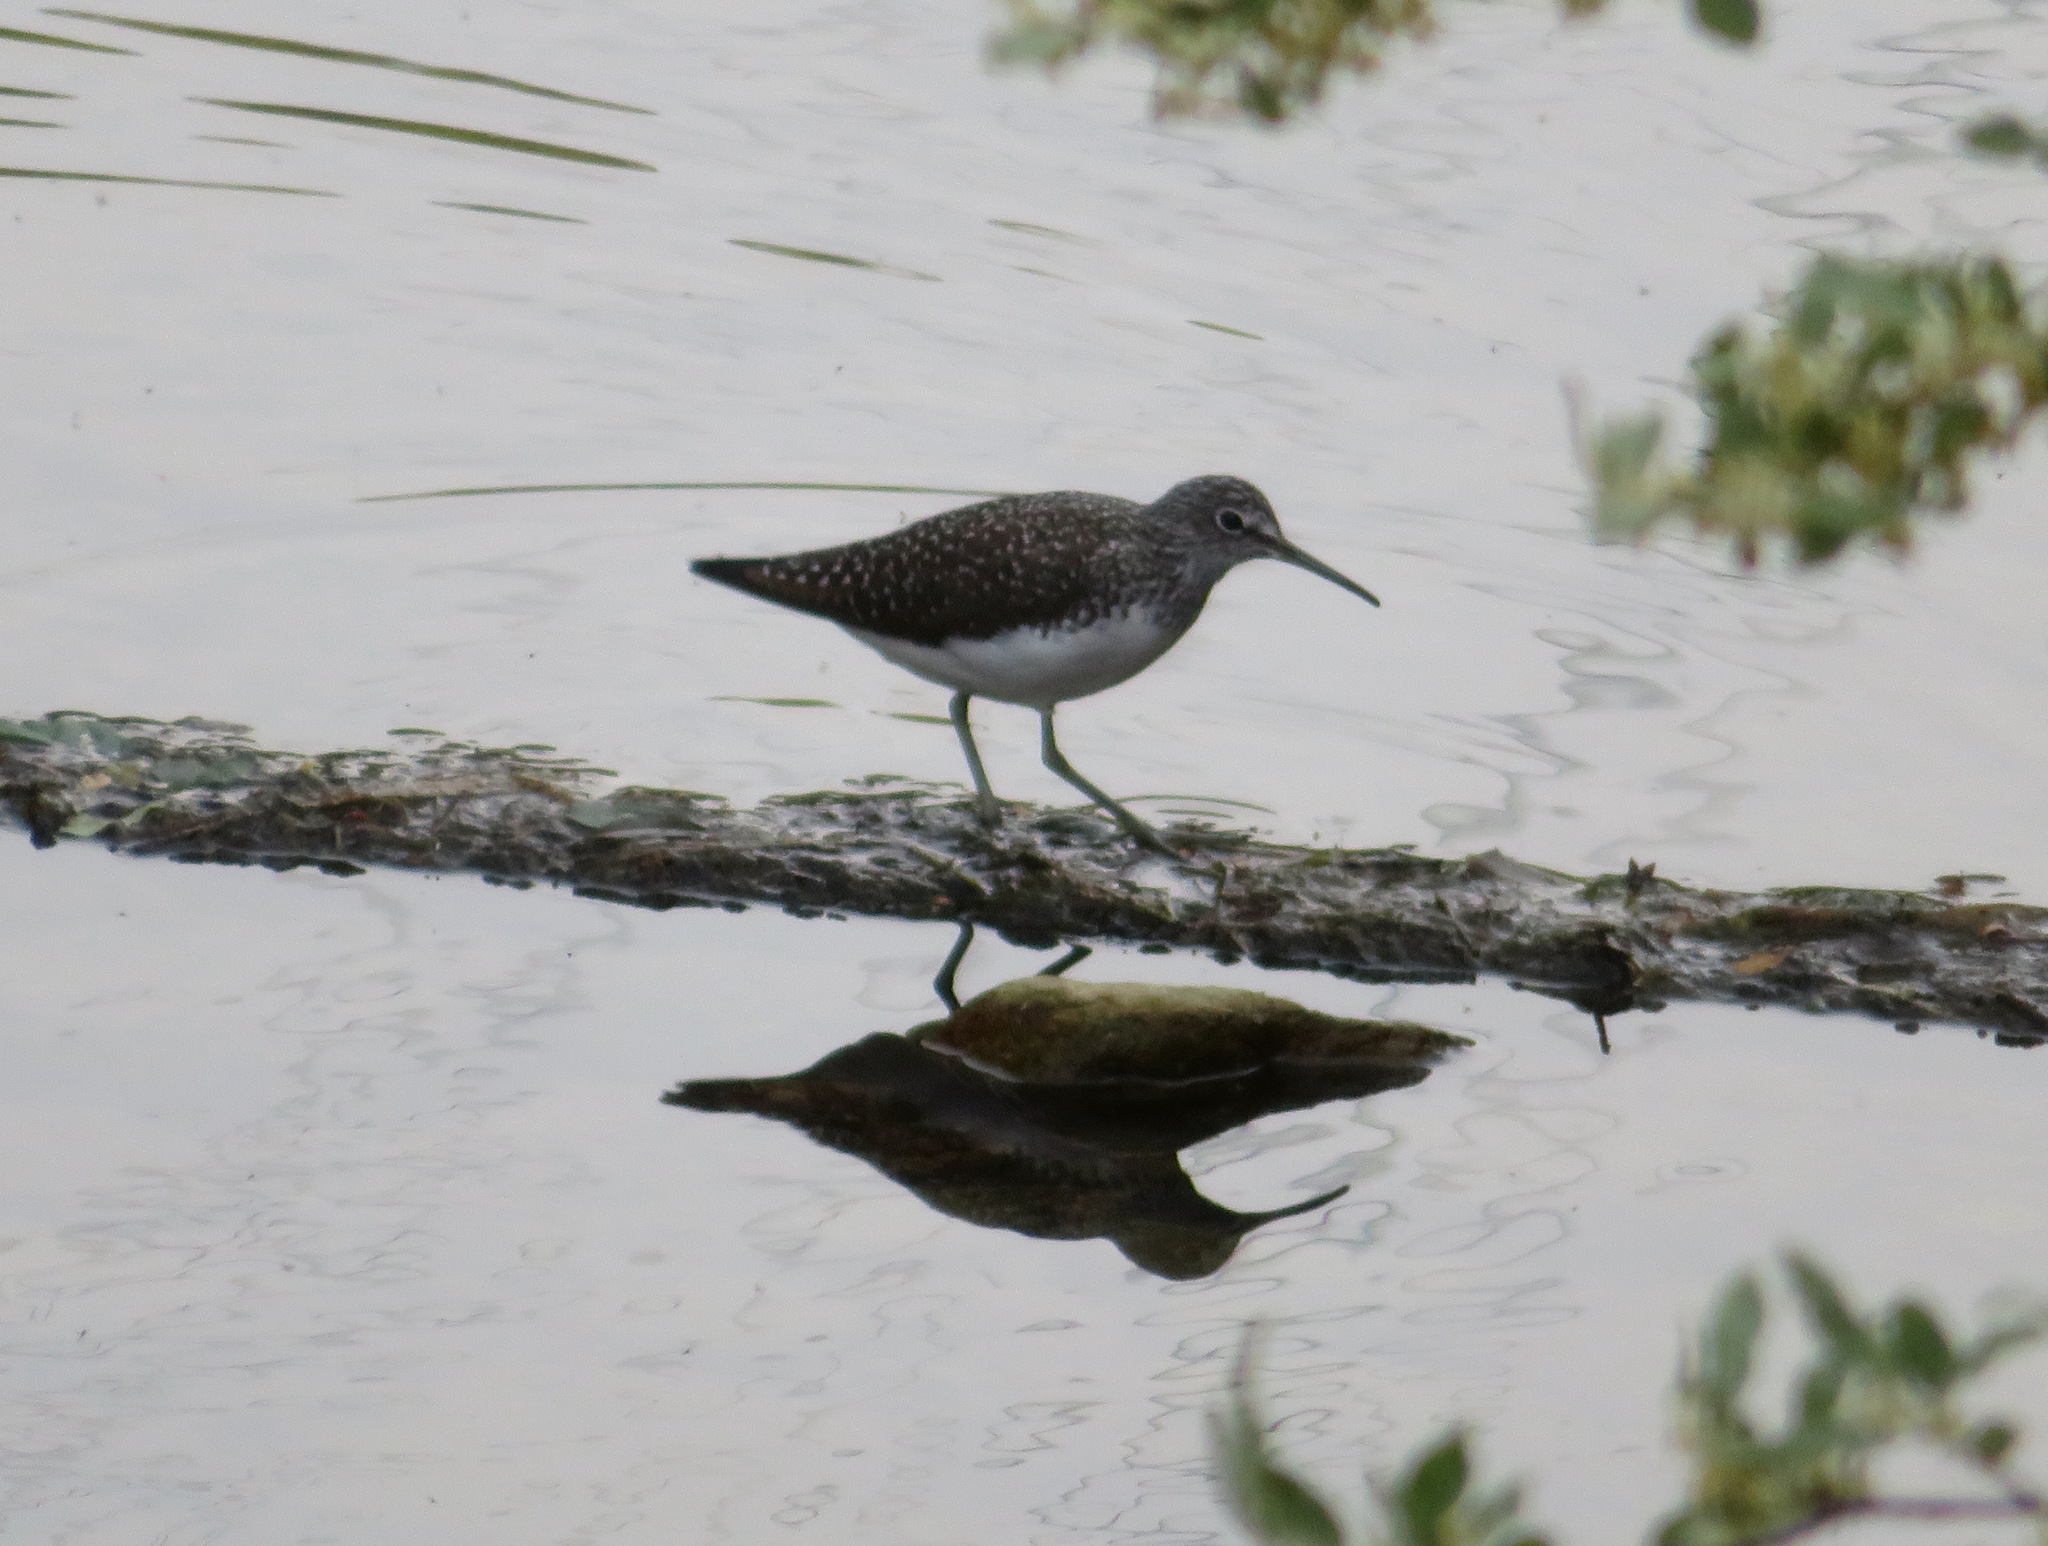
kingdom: Animalia
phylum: Chordata
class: Aves
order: Charadriiformes
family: Scolopacidae
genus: Tringa
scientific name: Tringa ochropus
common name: Green sandpiper
